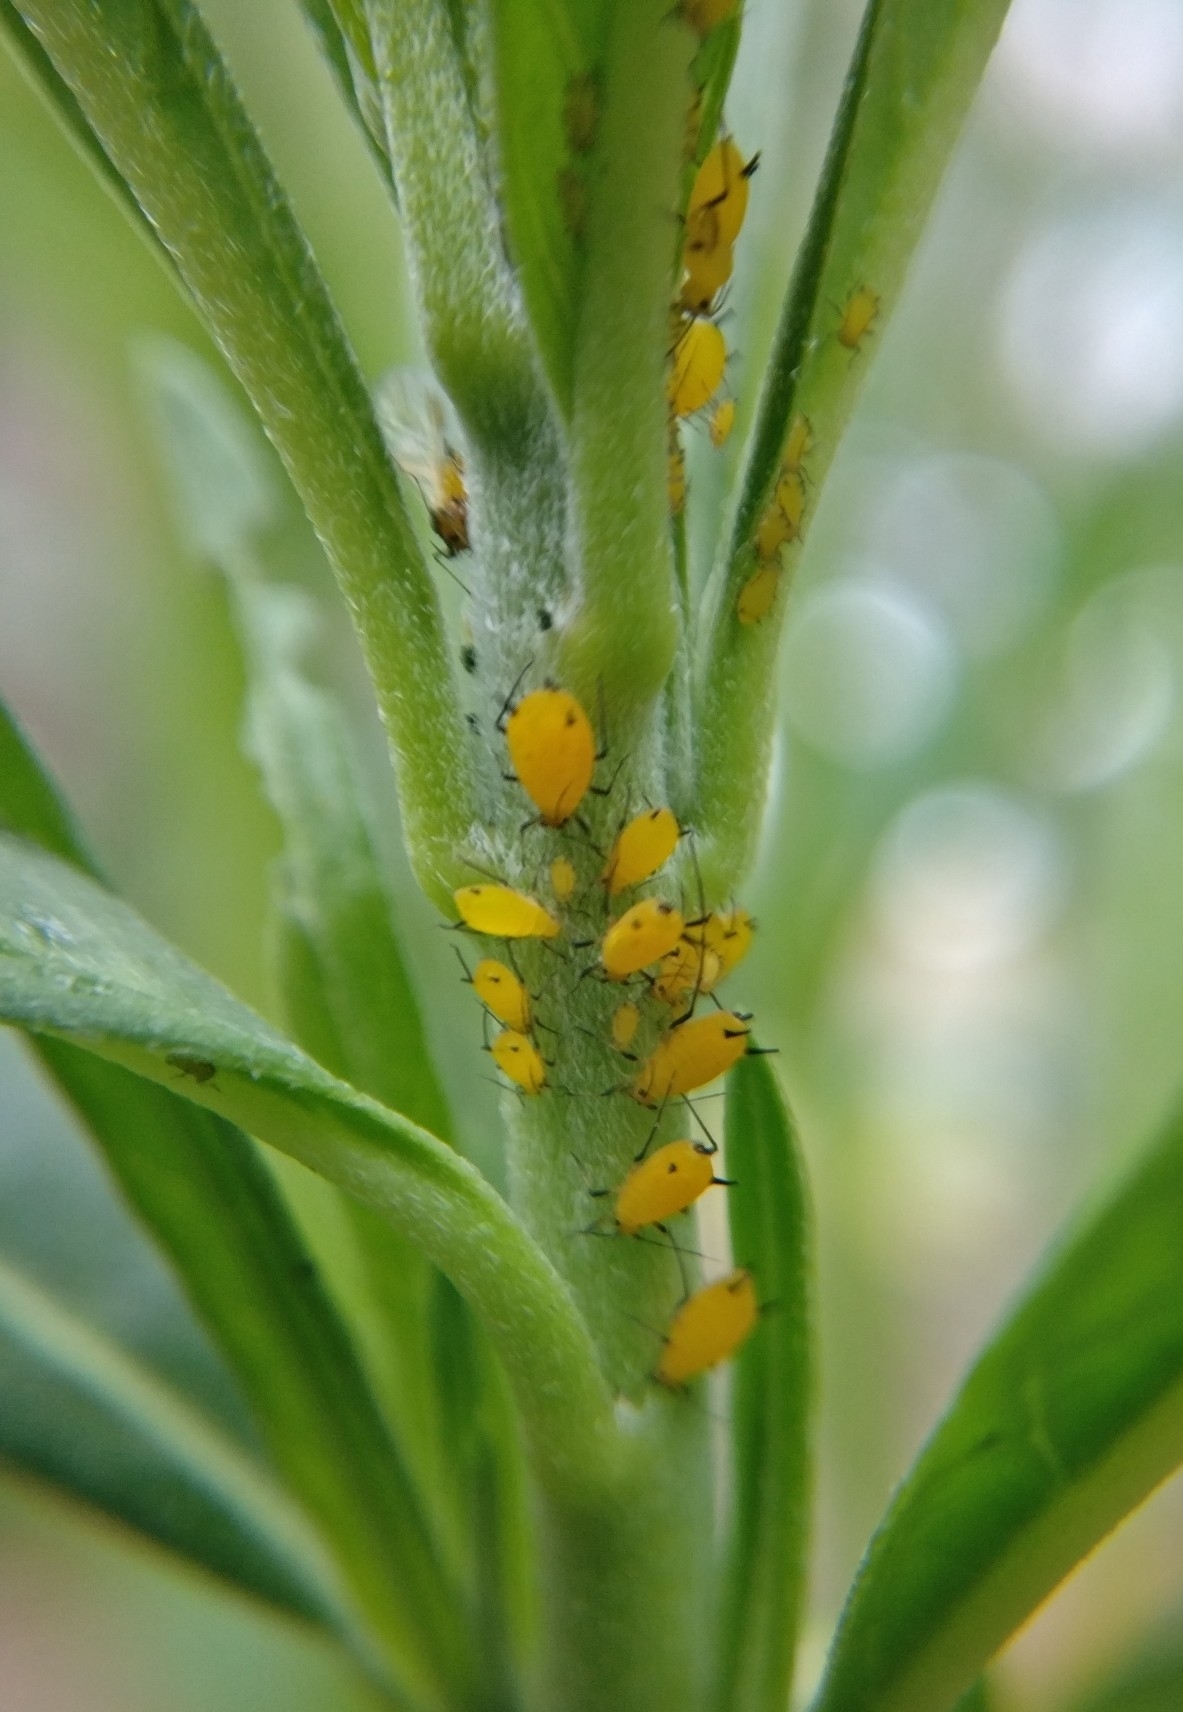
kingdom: Animalia
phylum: Arthropoda
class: Insecta
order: Hemiptera
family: Aphididae
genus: Aphis
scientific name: Aphis nerii
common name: Oleander aphid
